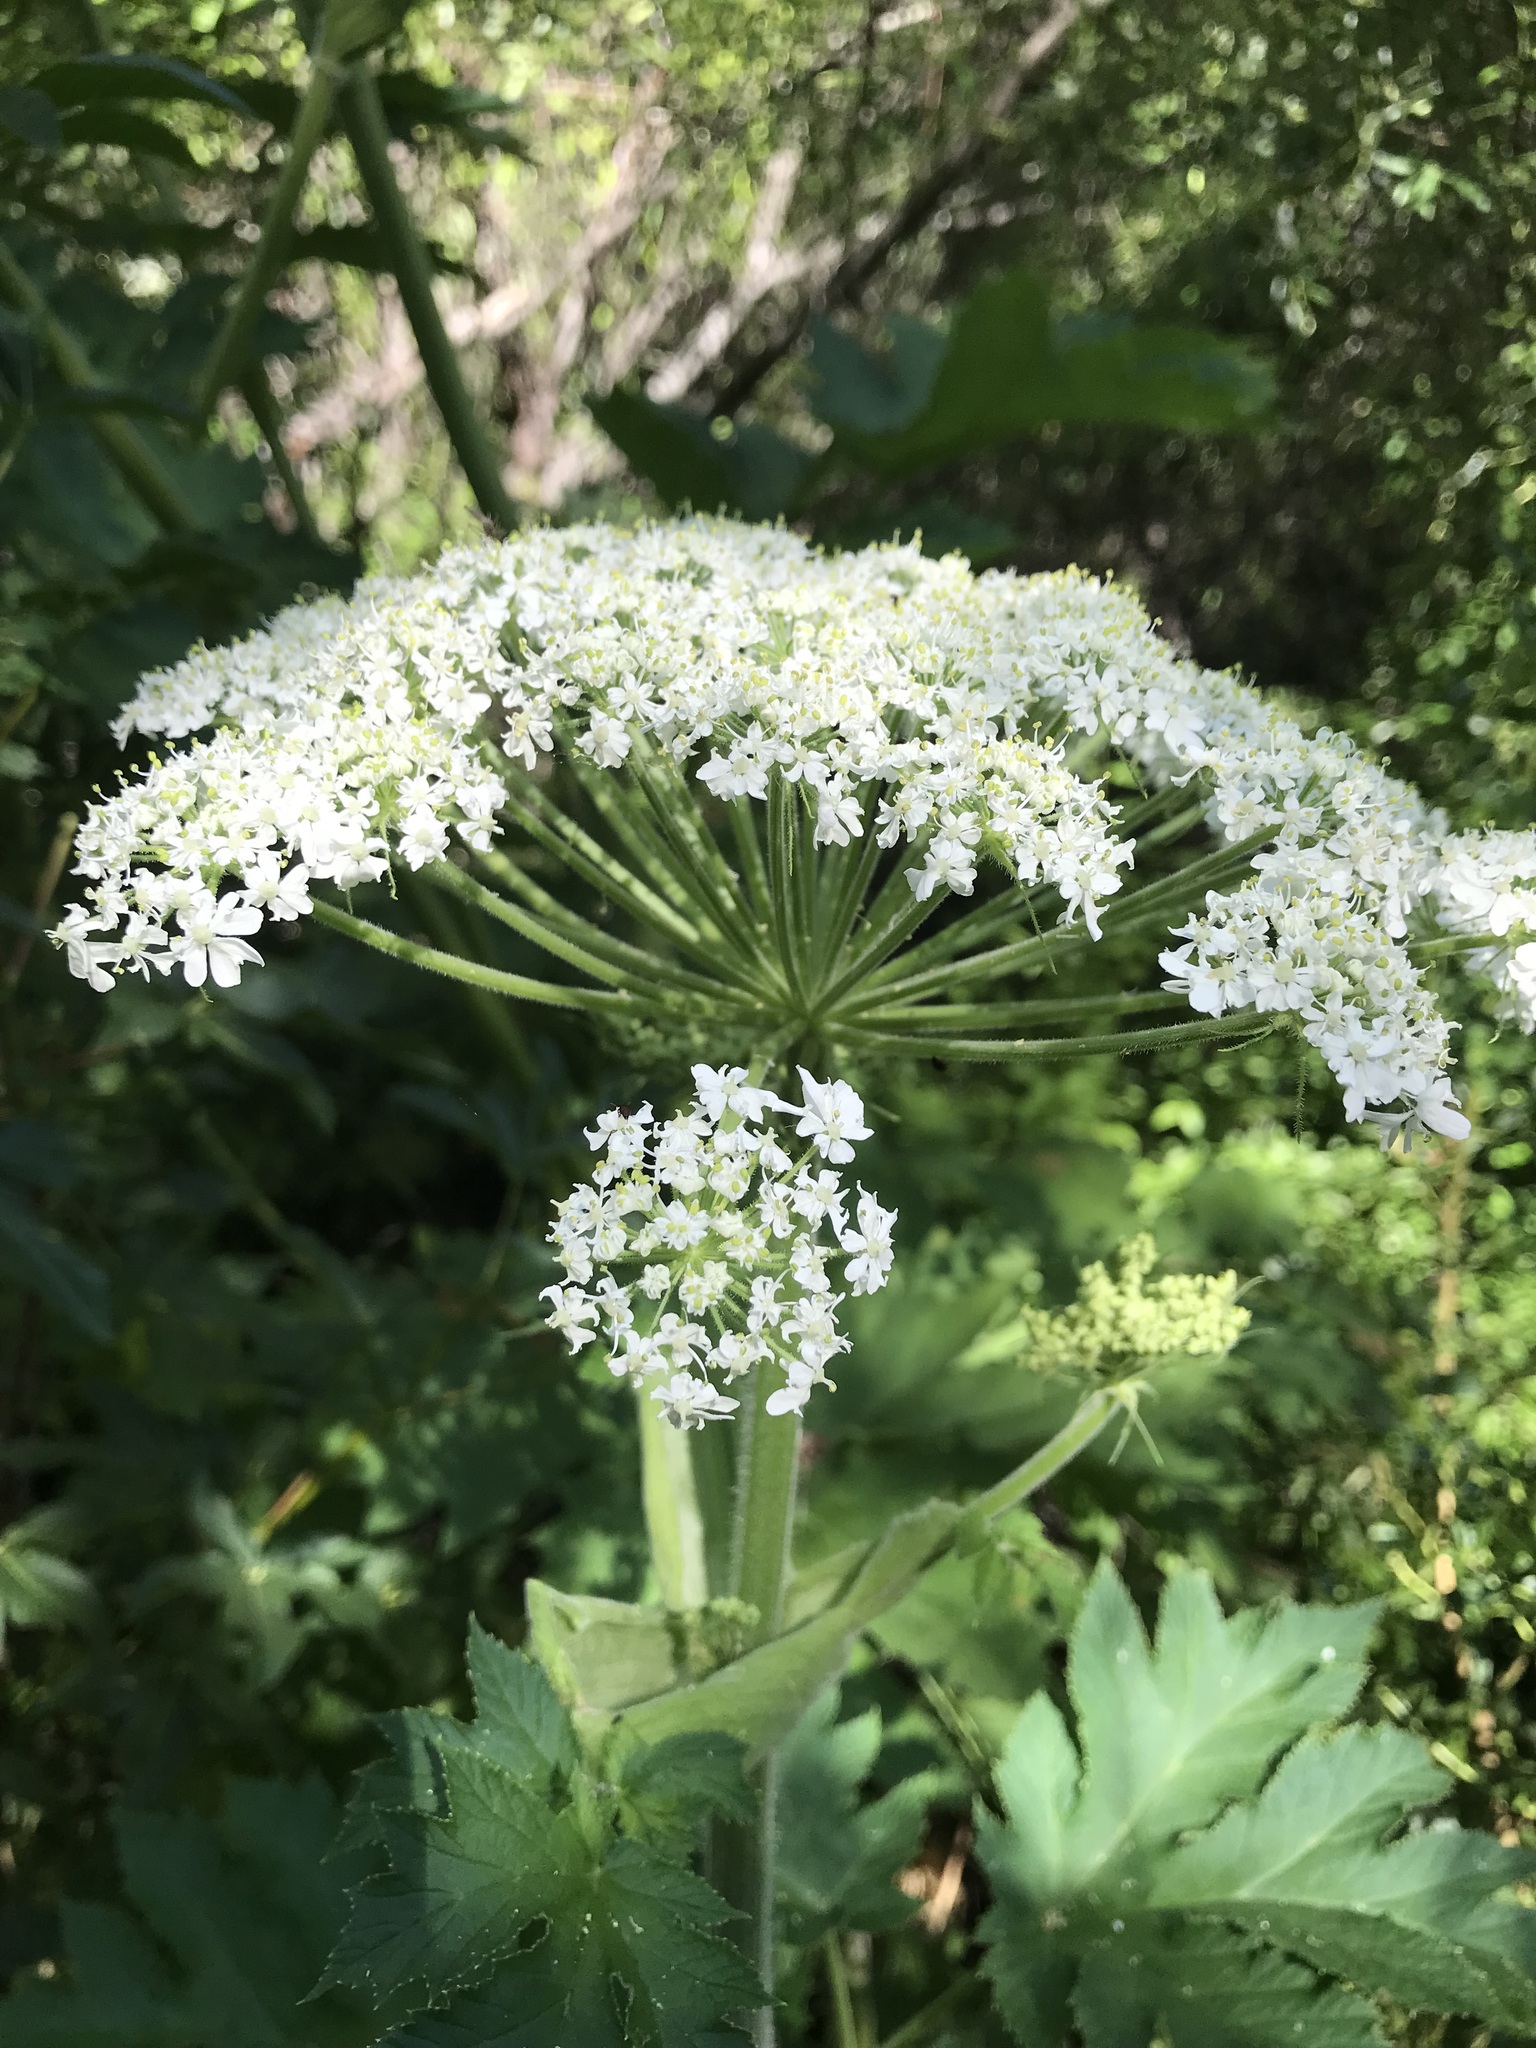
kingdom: Plantae
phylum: Tracheophyta
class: Magnoliopsida
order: Apiales
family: Apiaceae
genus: Heracleum
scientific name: Heracleum maximum
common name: American cow parsnip
